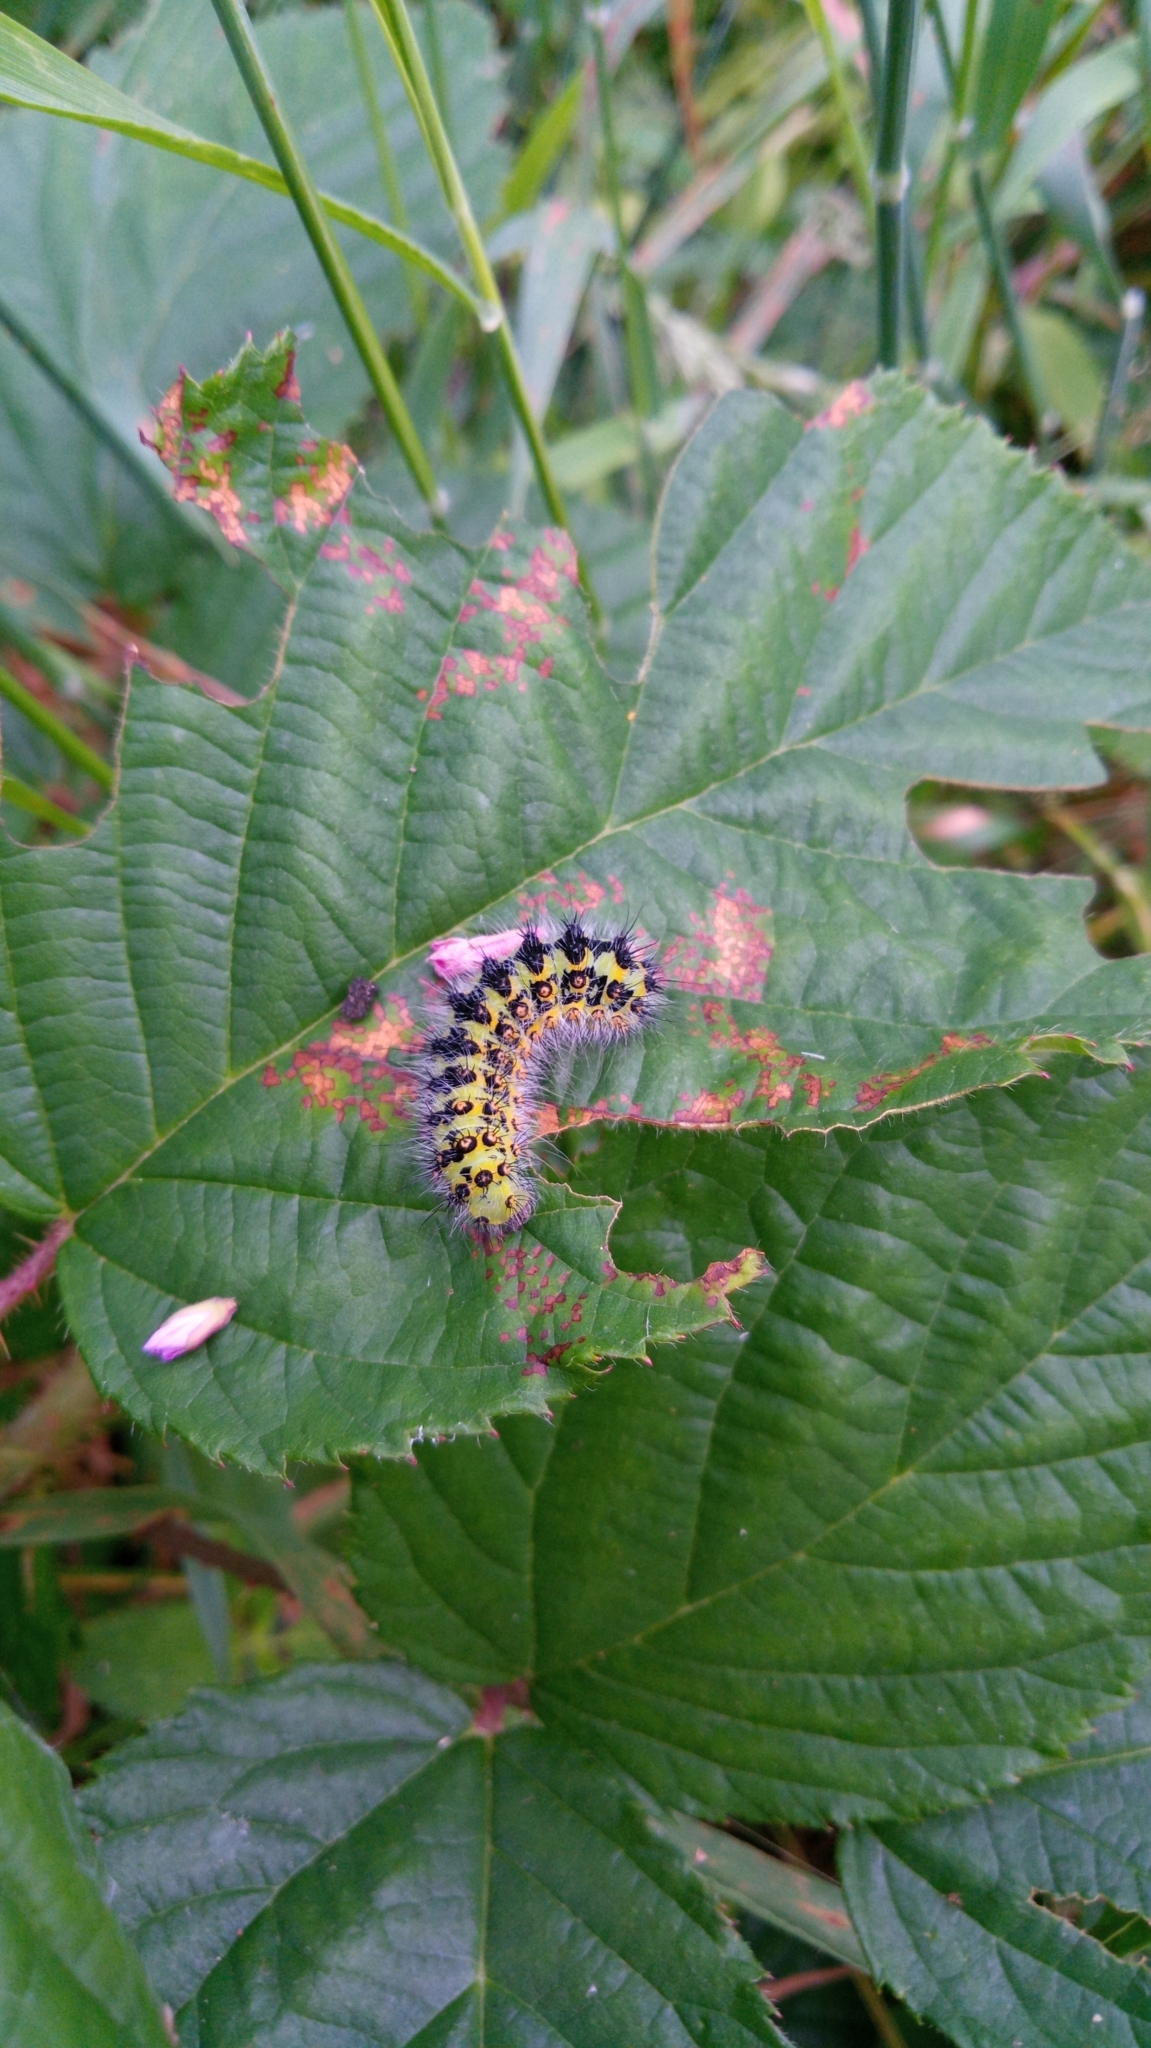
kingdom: Animalia
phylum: Arthropoda
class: Insecta
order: Lepidoptera
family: Saturniidae
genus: Saturnia
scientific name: Saturnia pavonia
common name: Emperor moth
